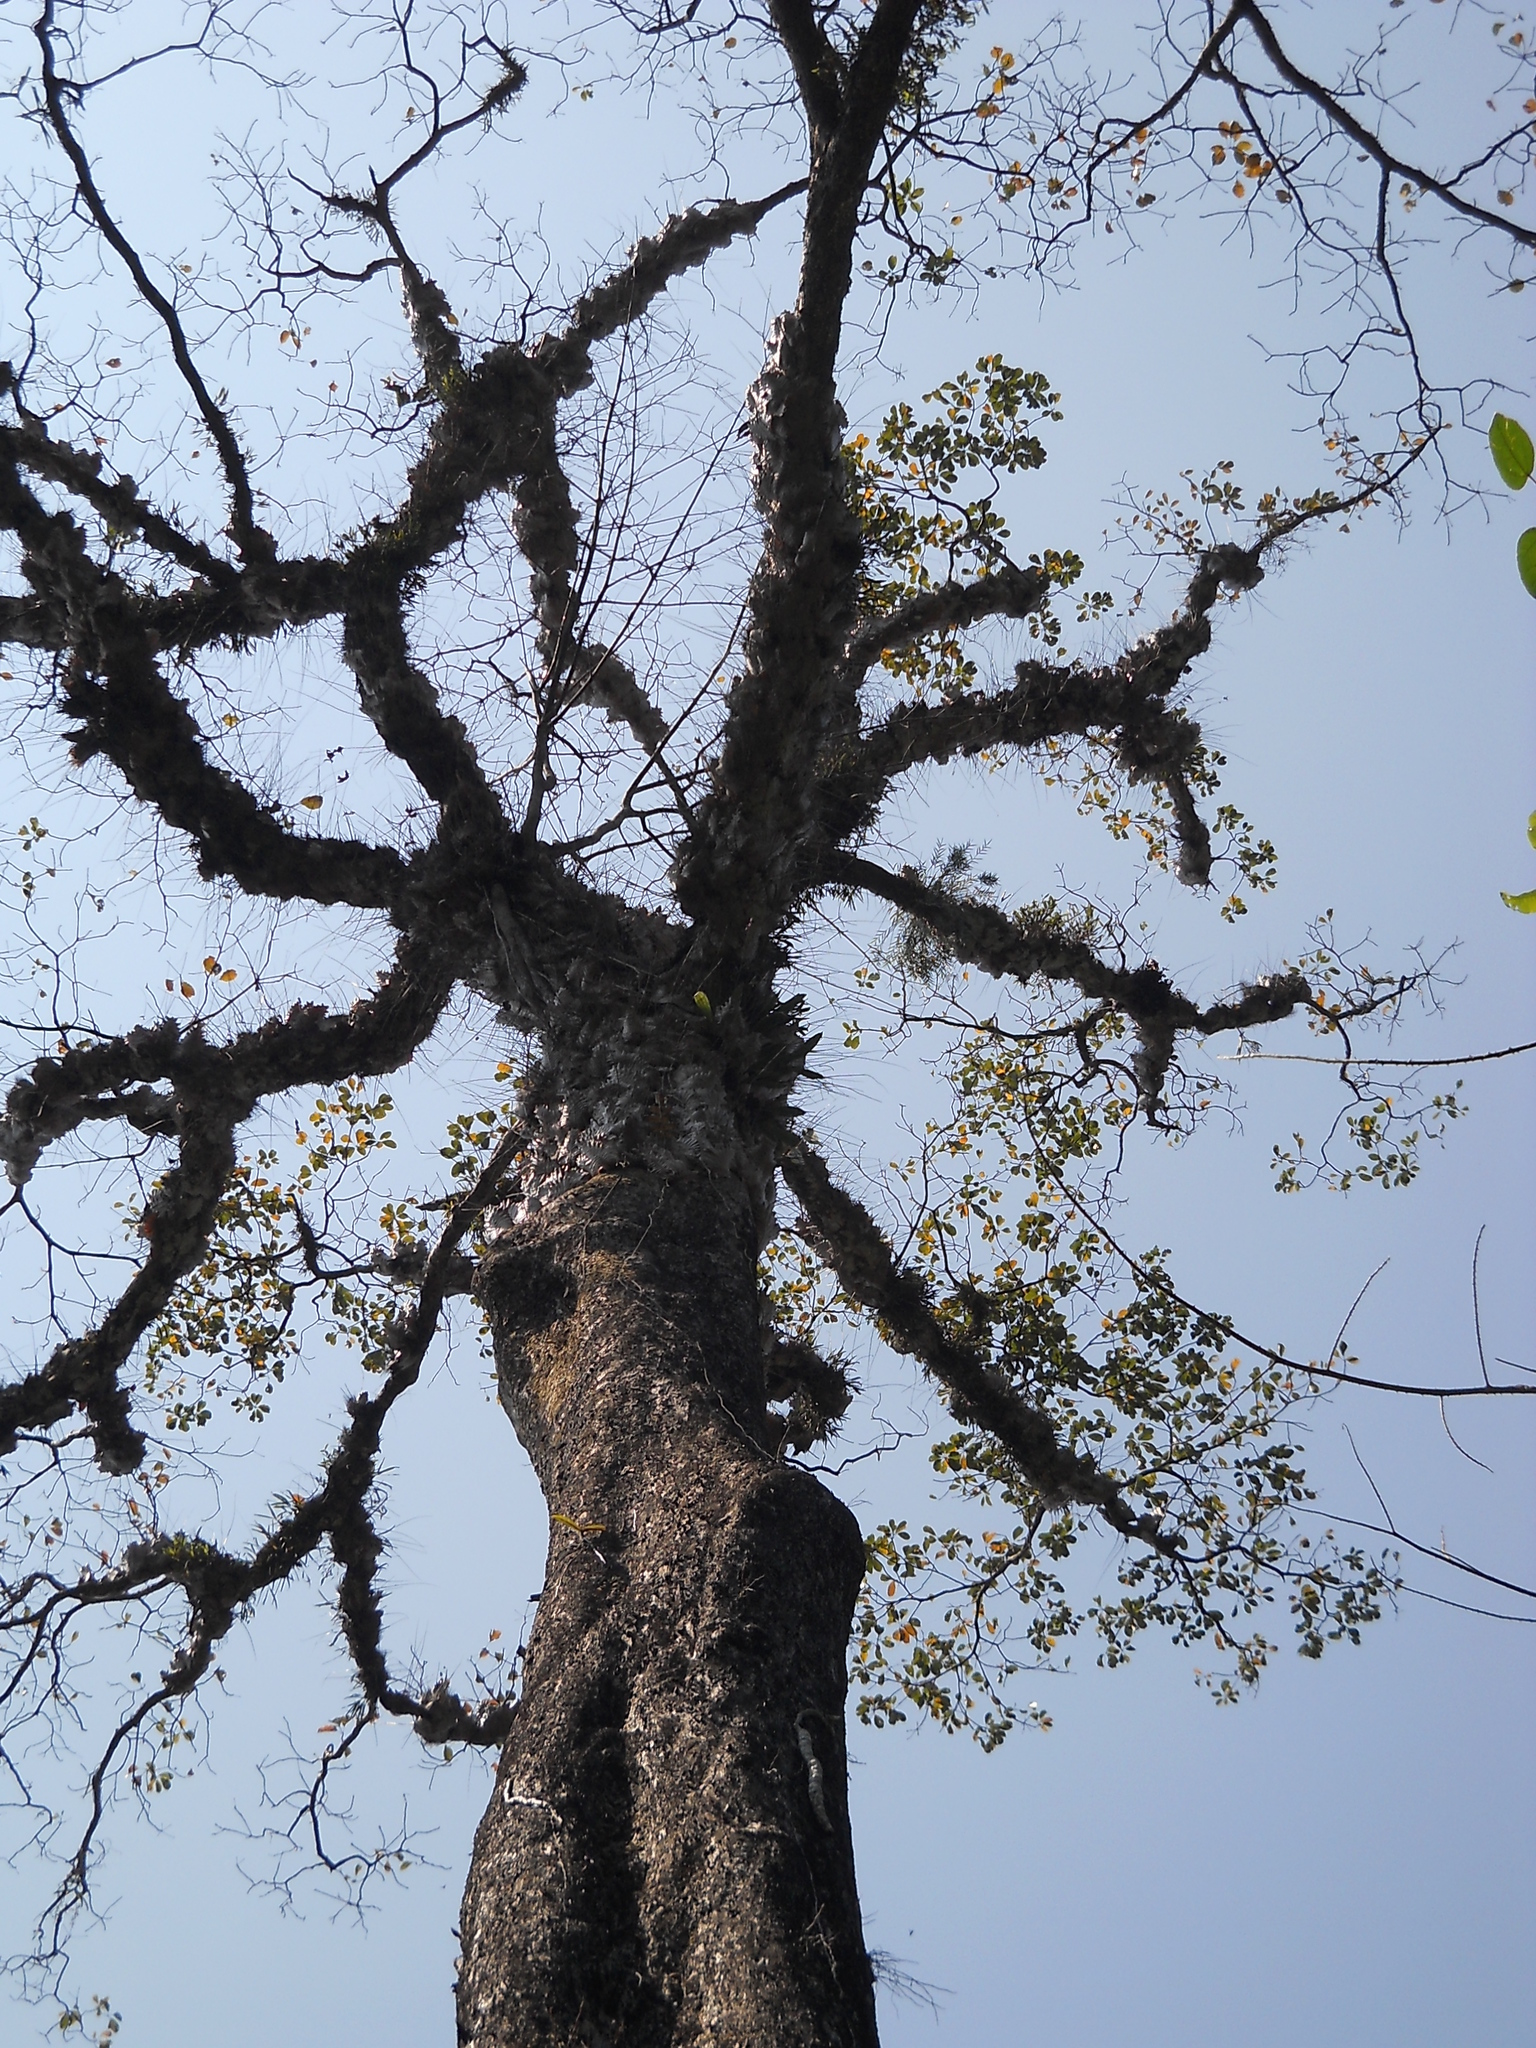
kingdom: Plantae
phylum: Tracheophyta
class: Magnoliopsida
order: Myrtales
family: Combretaceae
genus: Terminalia
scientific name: Terminalia bellirica
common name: Beleric myrobalan
